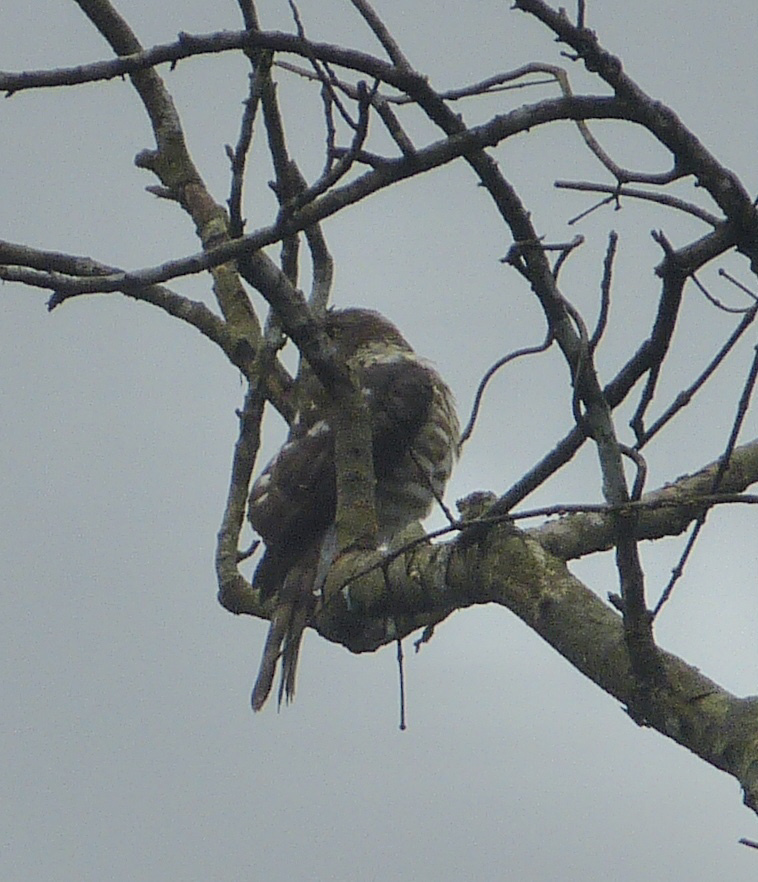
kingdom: Animalia
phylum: Chordata
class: Aves
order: Accipitriformes
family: Accipitridae
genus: Accipiter
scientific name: Accipiter virgatus
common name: Besra
